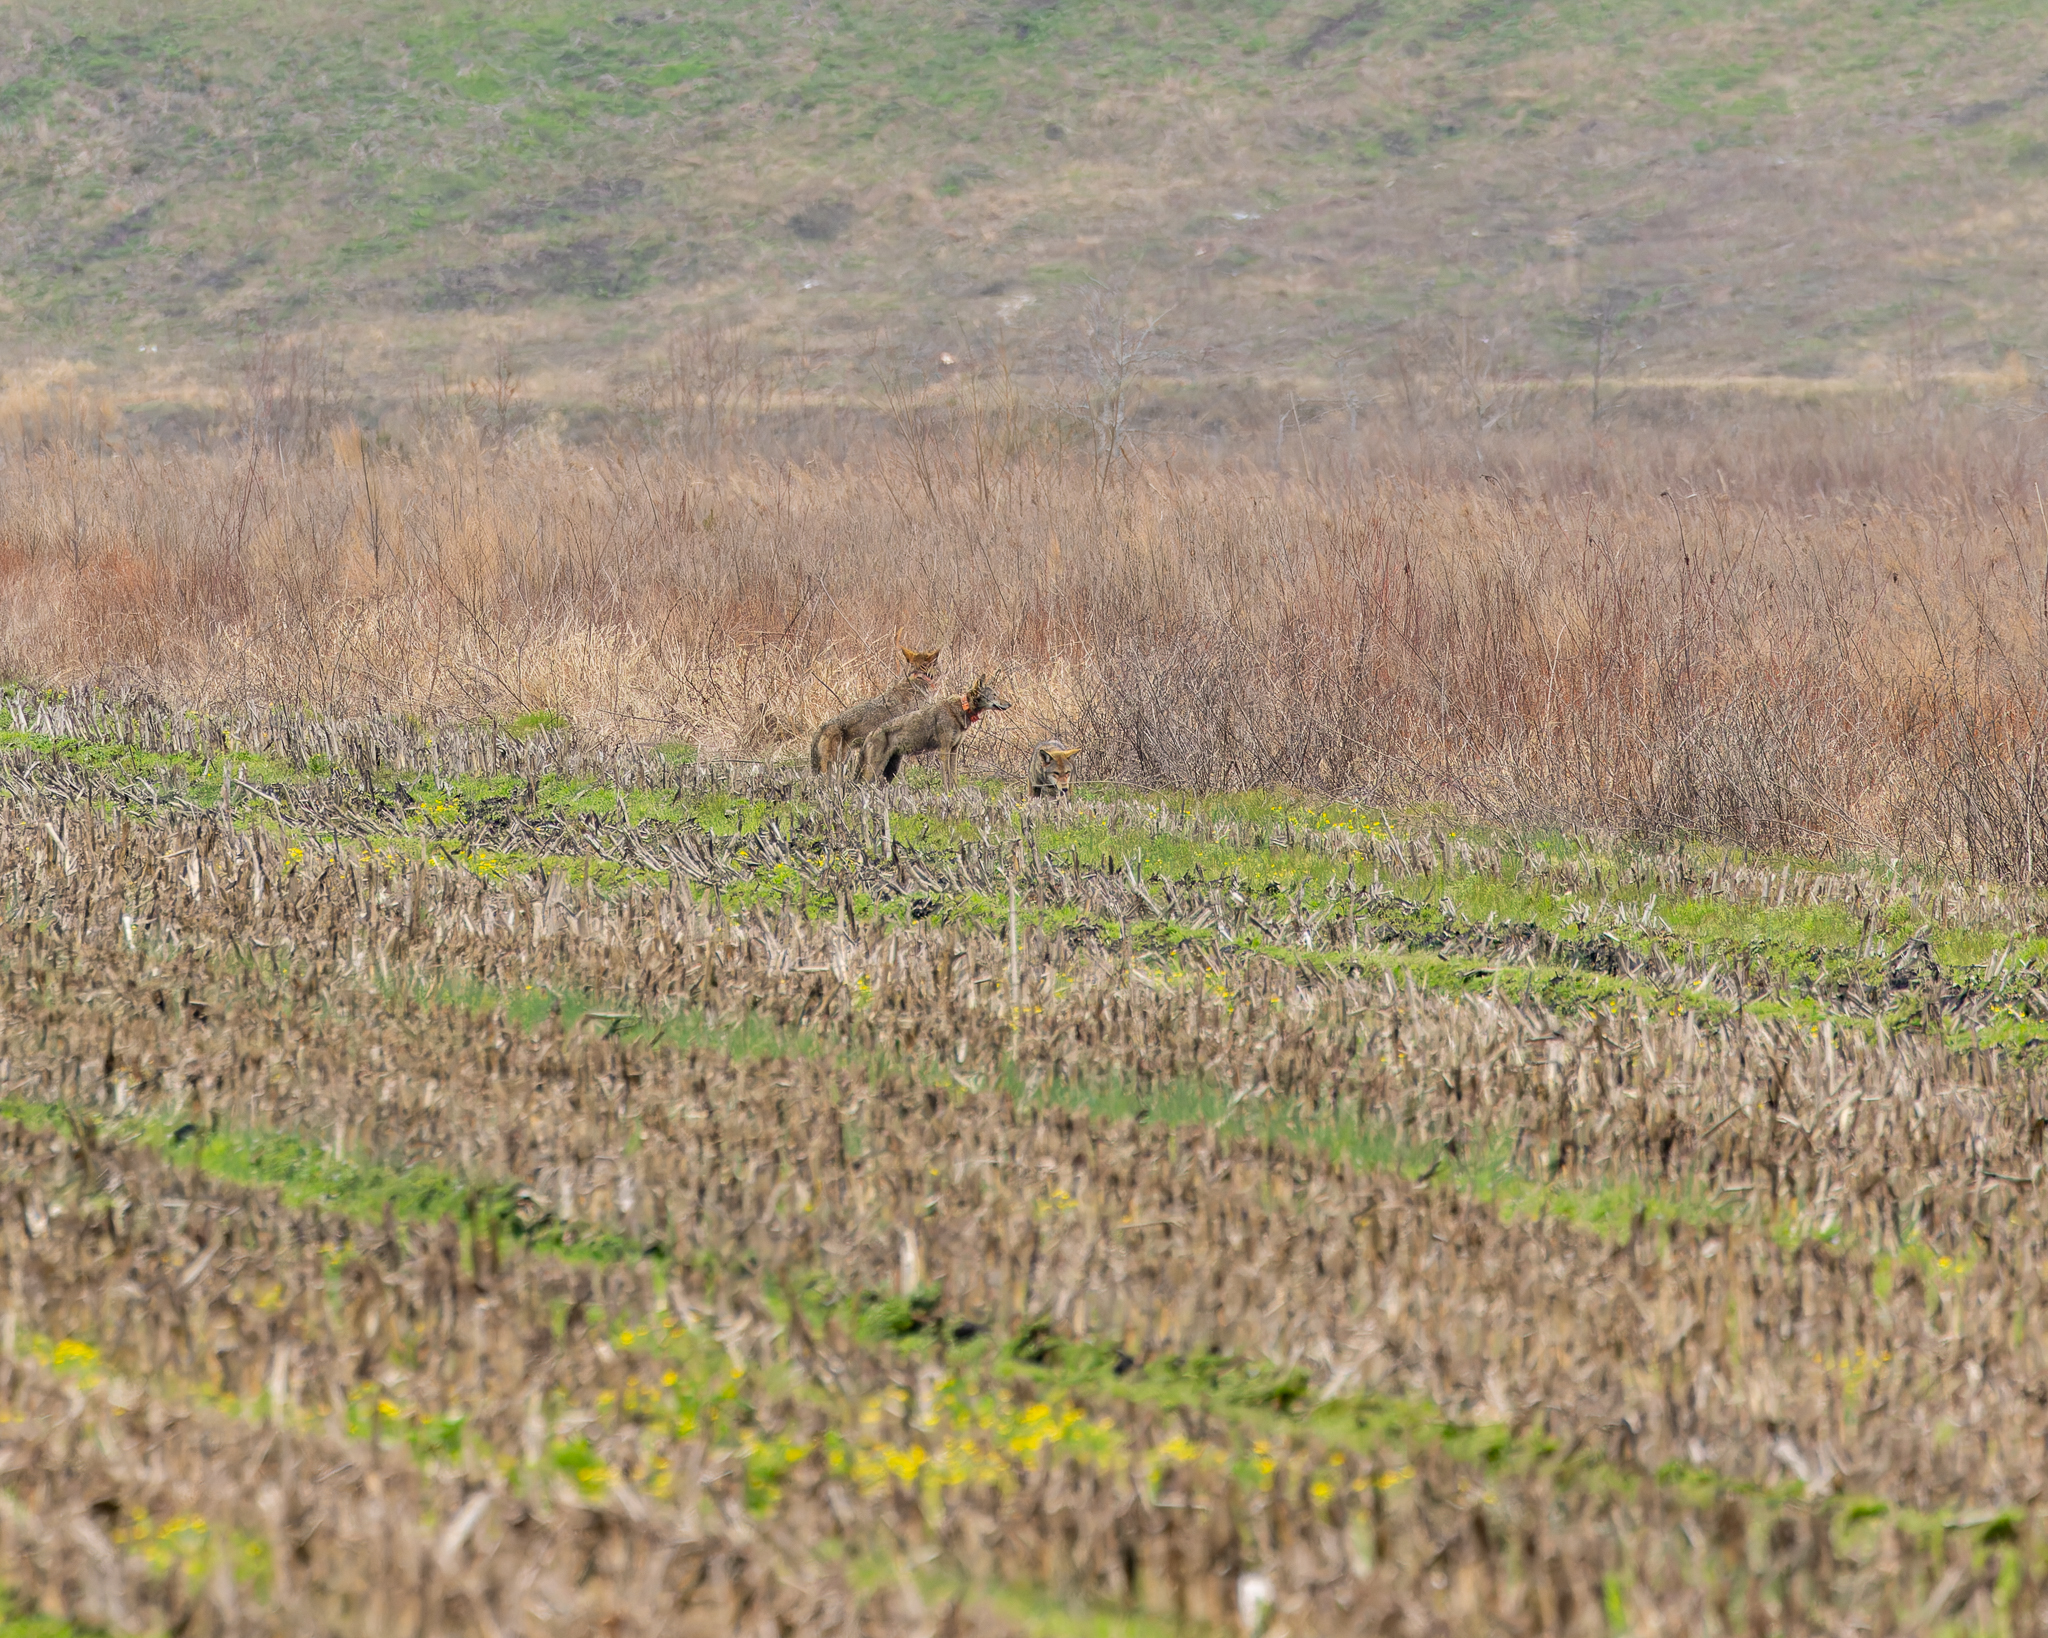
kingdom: Animalia
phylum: Chordata
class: Mammalia
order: Carnivora
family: Canidae
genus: Canis
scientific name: Canis lupus
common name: Gray wolf
